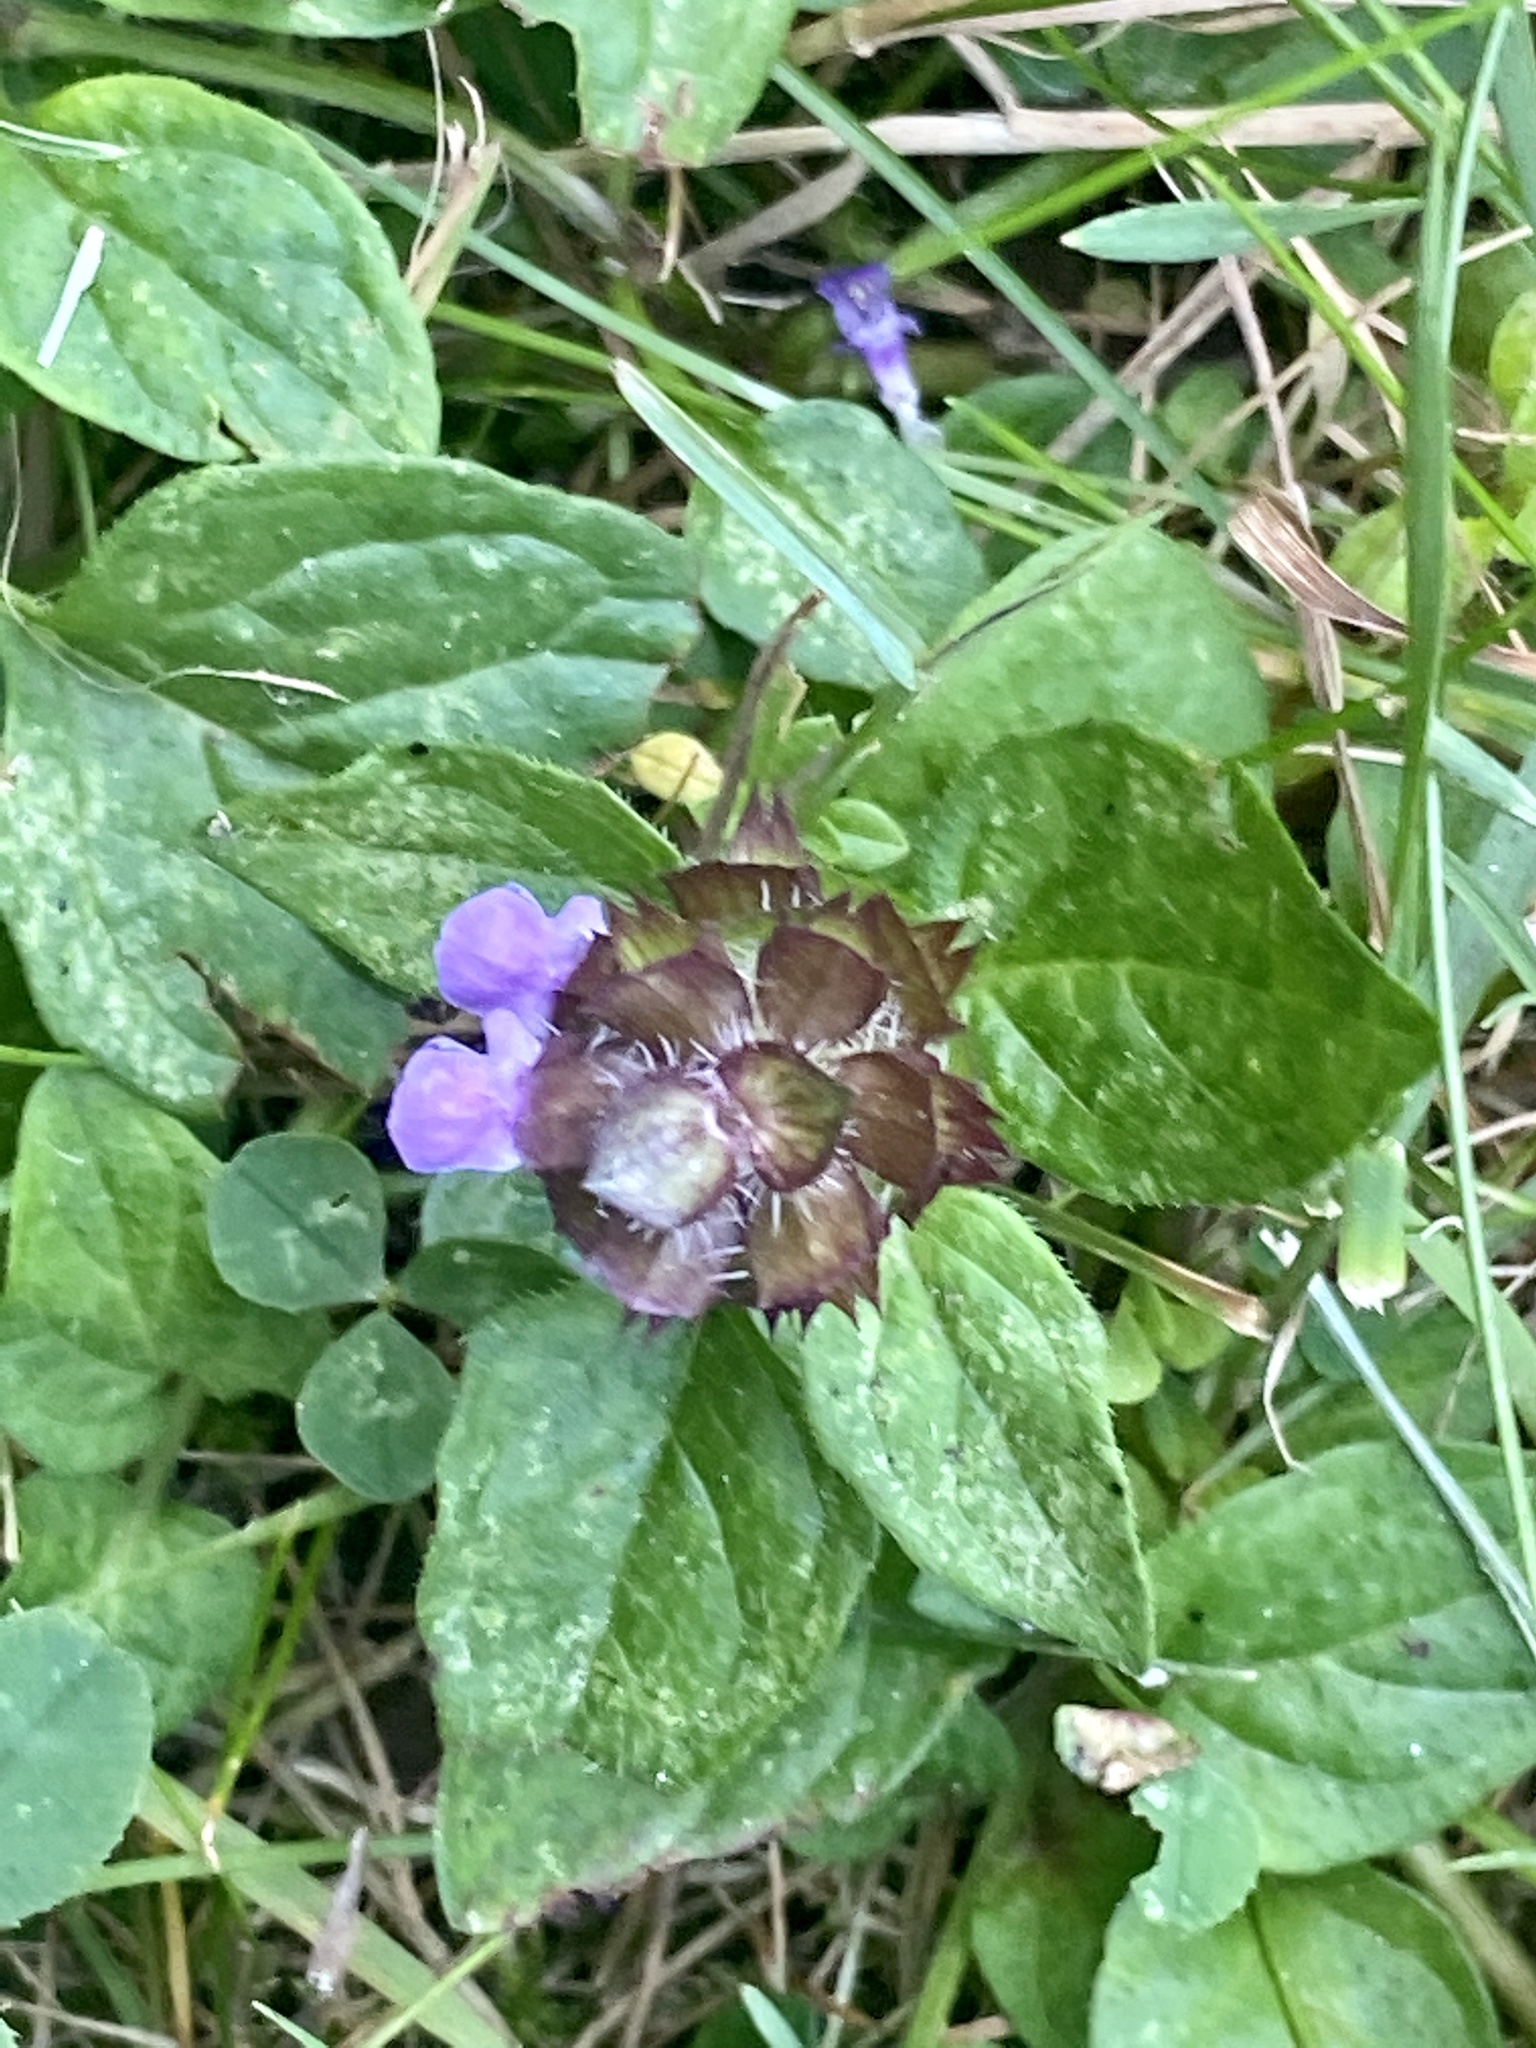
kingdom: Plantae
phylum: Tracheophyta
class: Magnoliopsida
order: Lamiales
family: Lamiaceae
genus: Prunella
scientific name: Prunella vulgaris
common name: Heal-all
